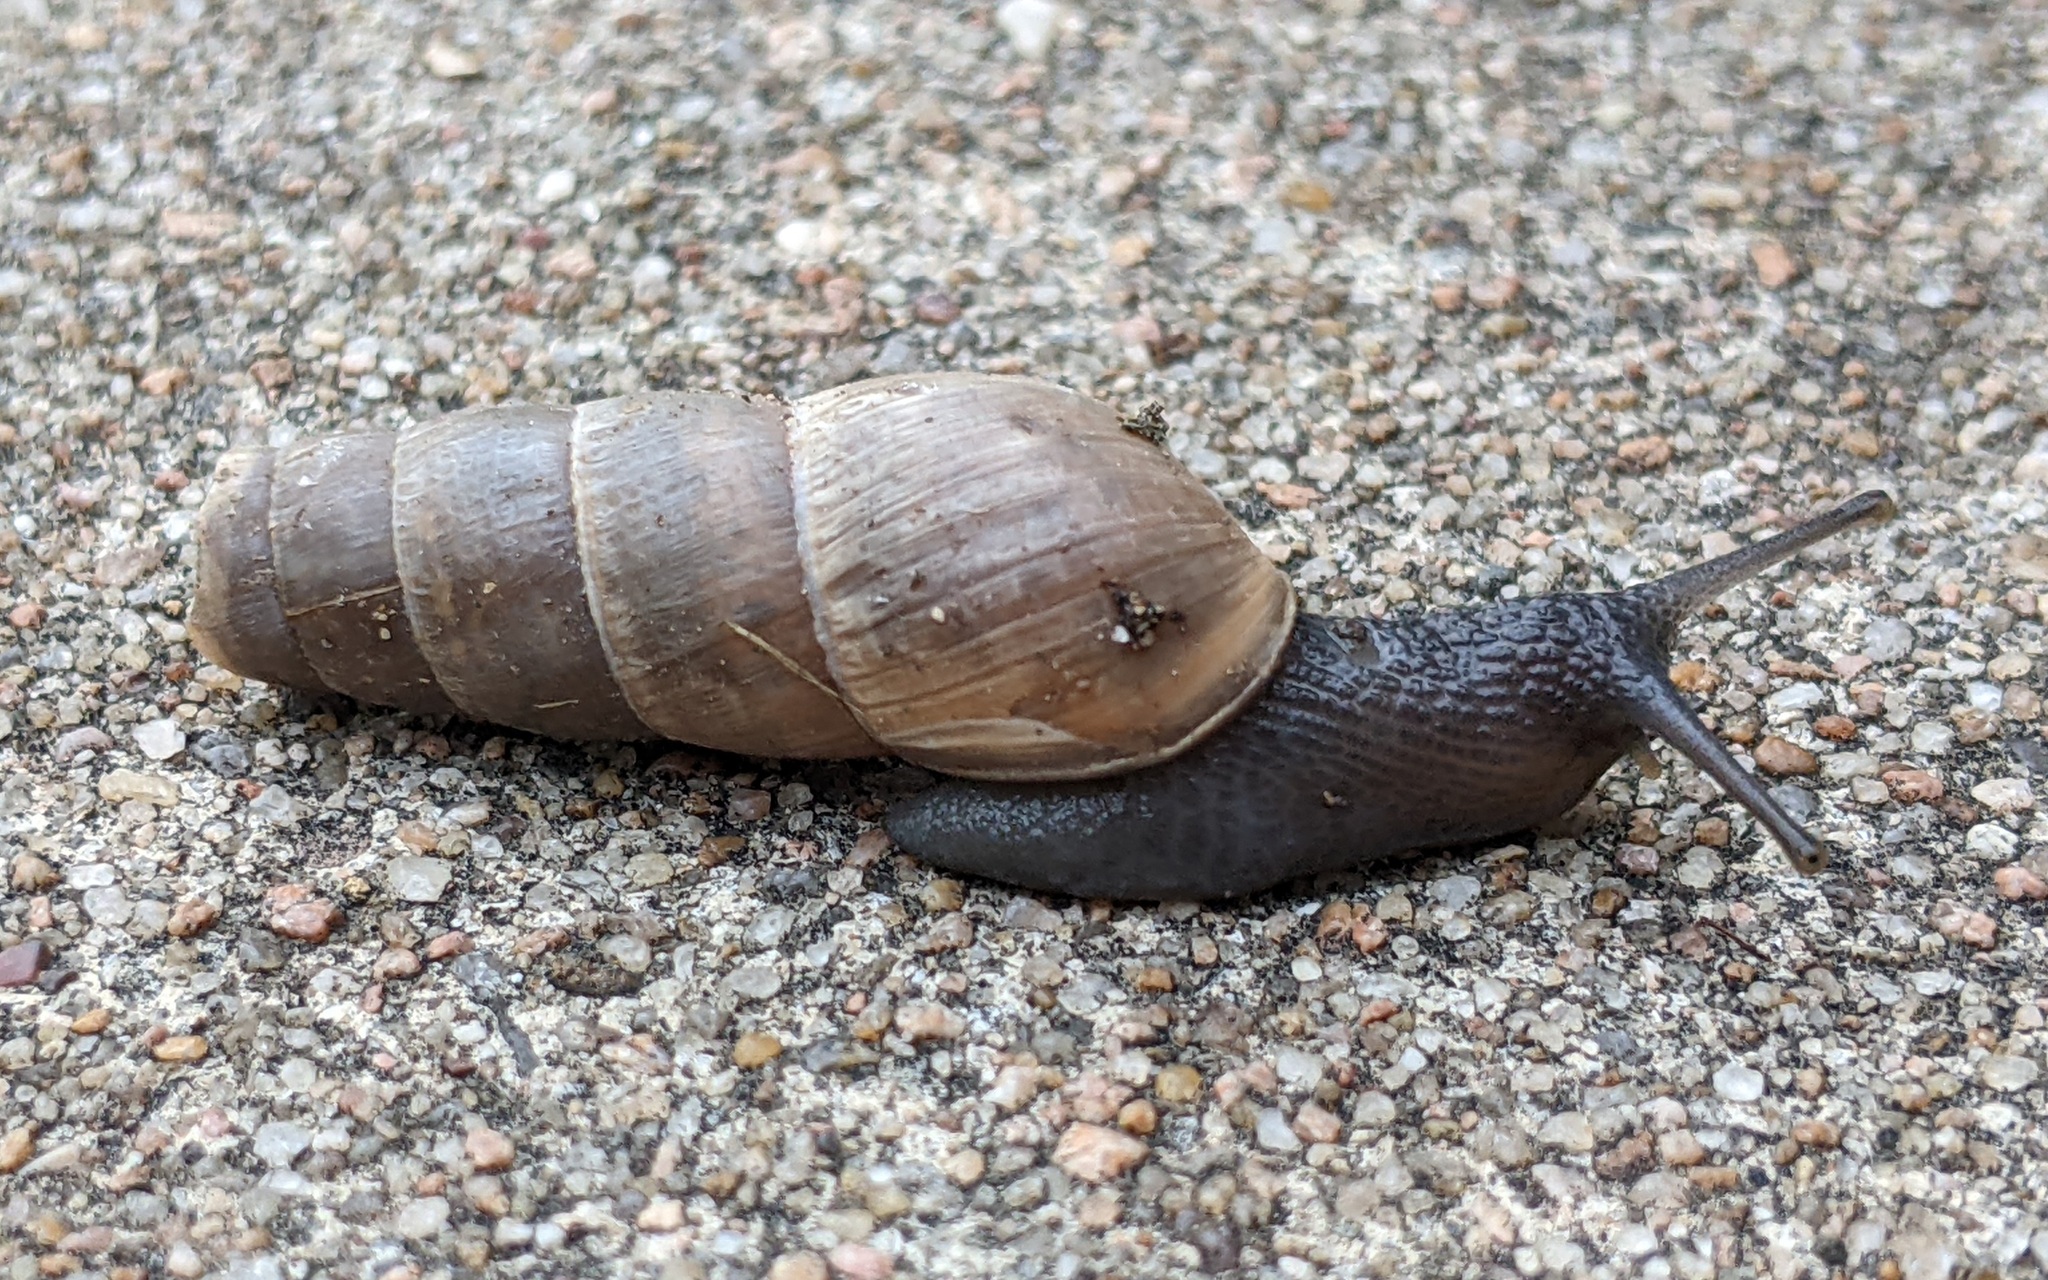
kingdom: Animalia
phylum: Mollusca
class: Gastropoda
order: Stylommatophora
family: Achatinidae
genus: Rumina
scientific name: Rumina decollata
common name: Decollate snail
